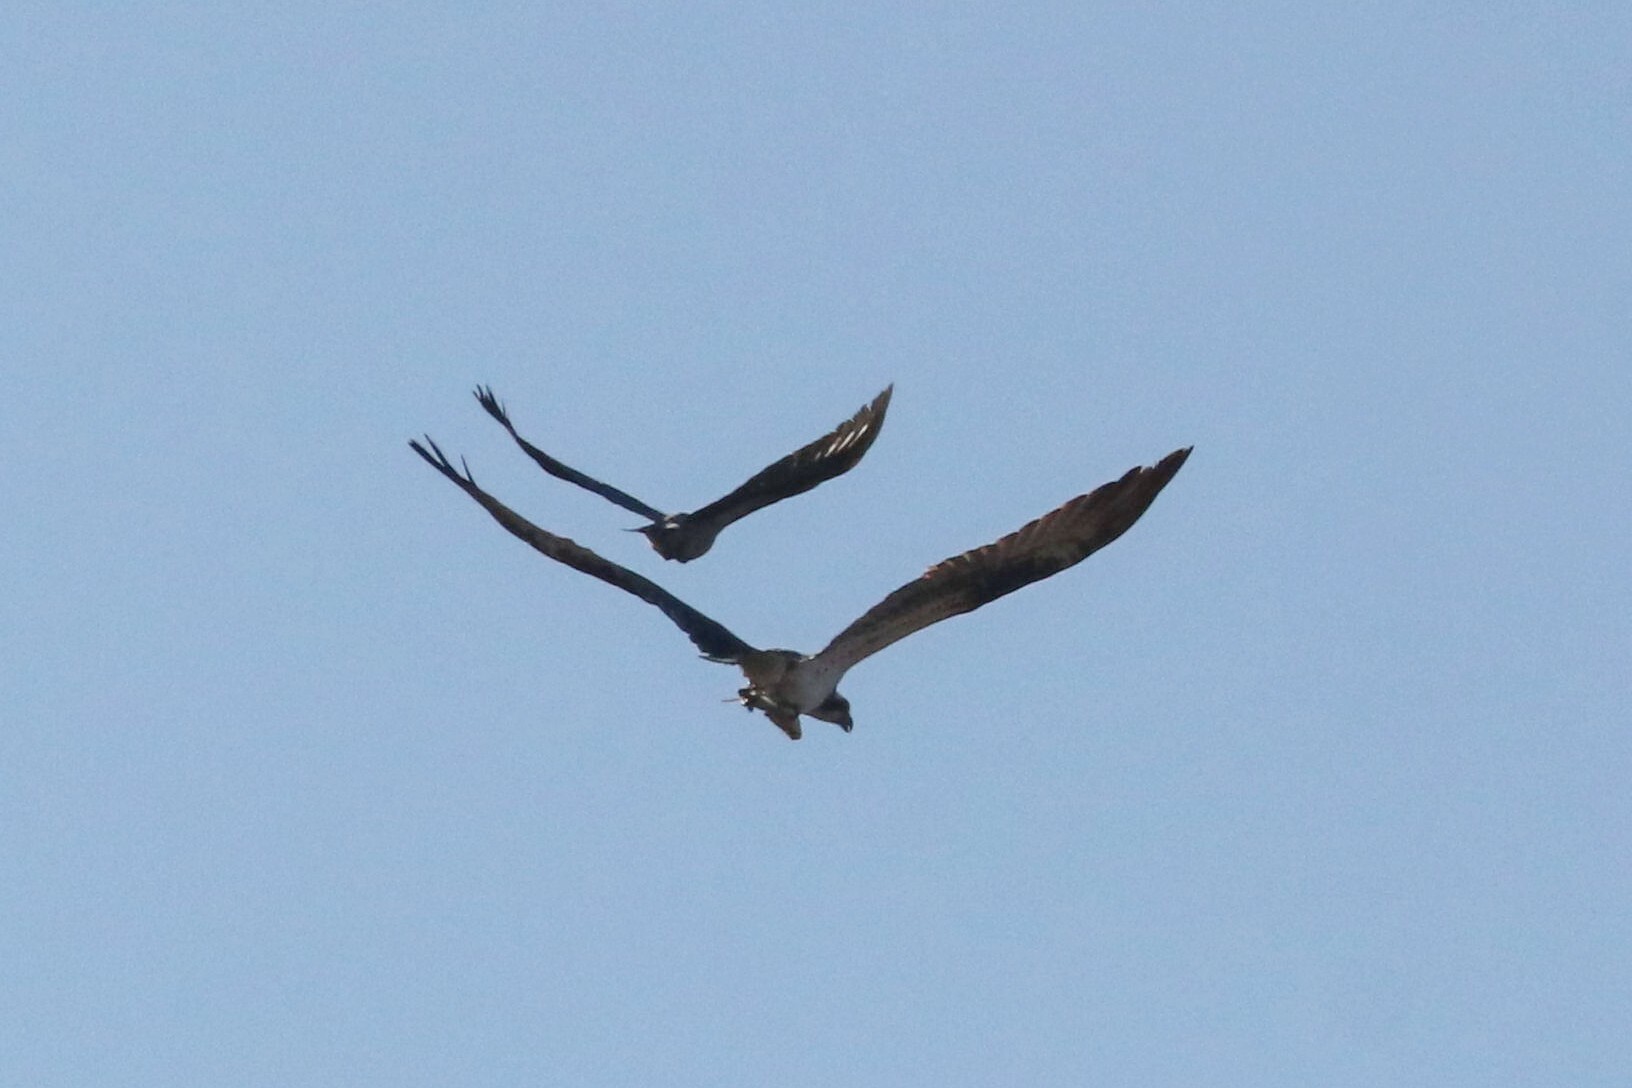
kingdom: Animalia
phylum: Chordata
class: Aves
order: Accipitriformes
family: Pandionidae
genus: Pandion
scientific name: Pandion haliaetus
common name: Osprey
